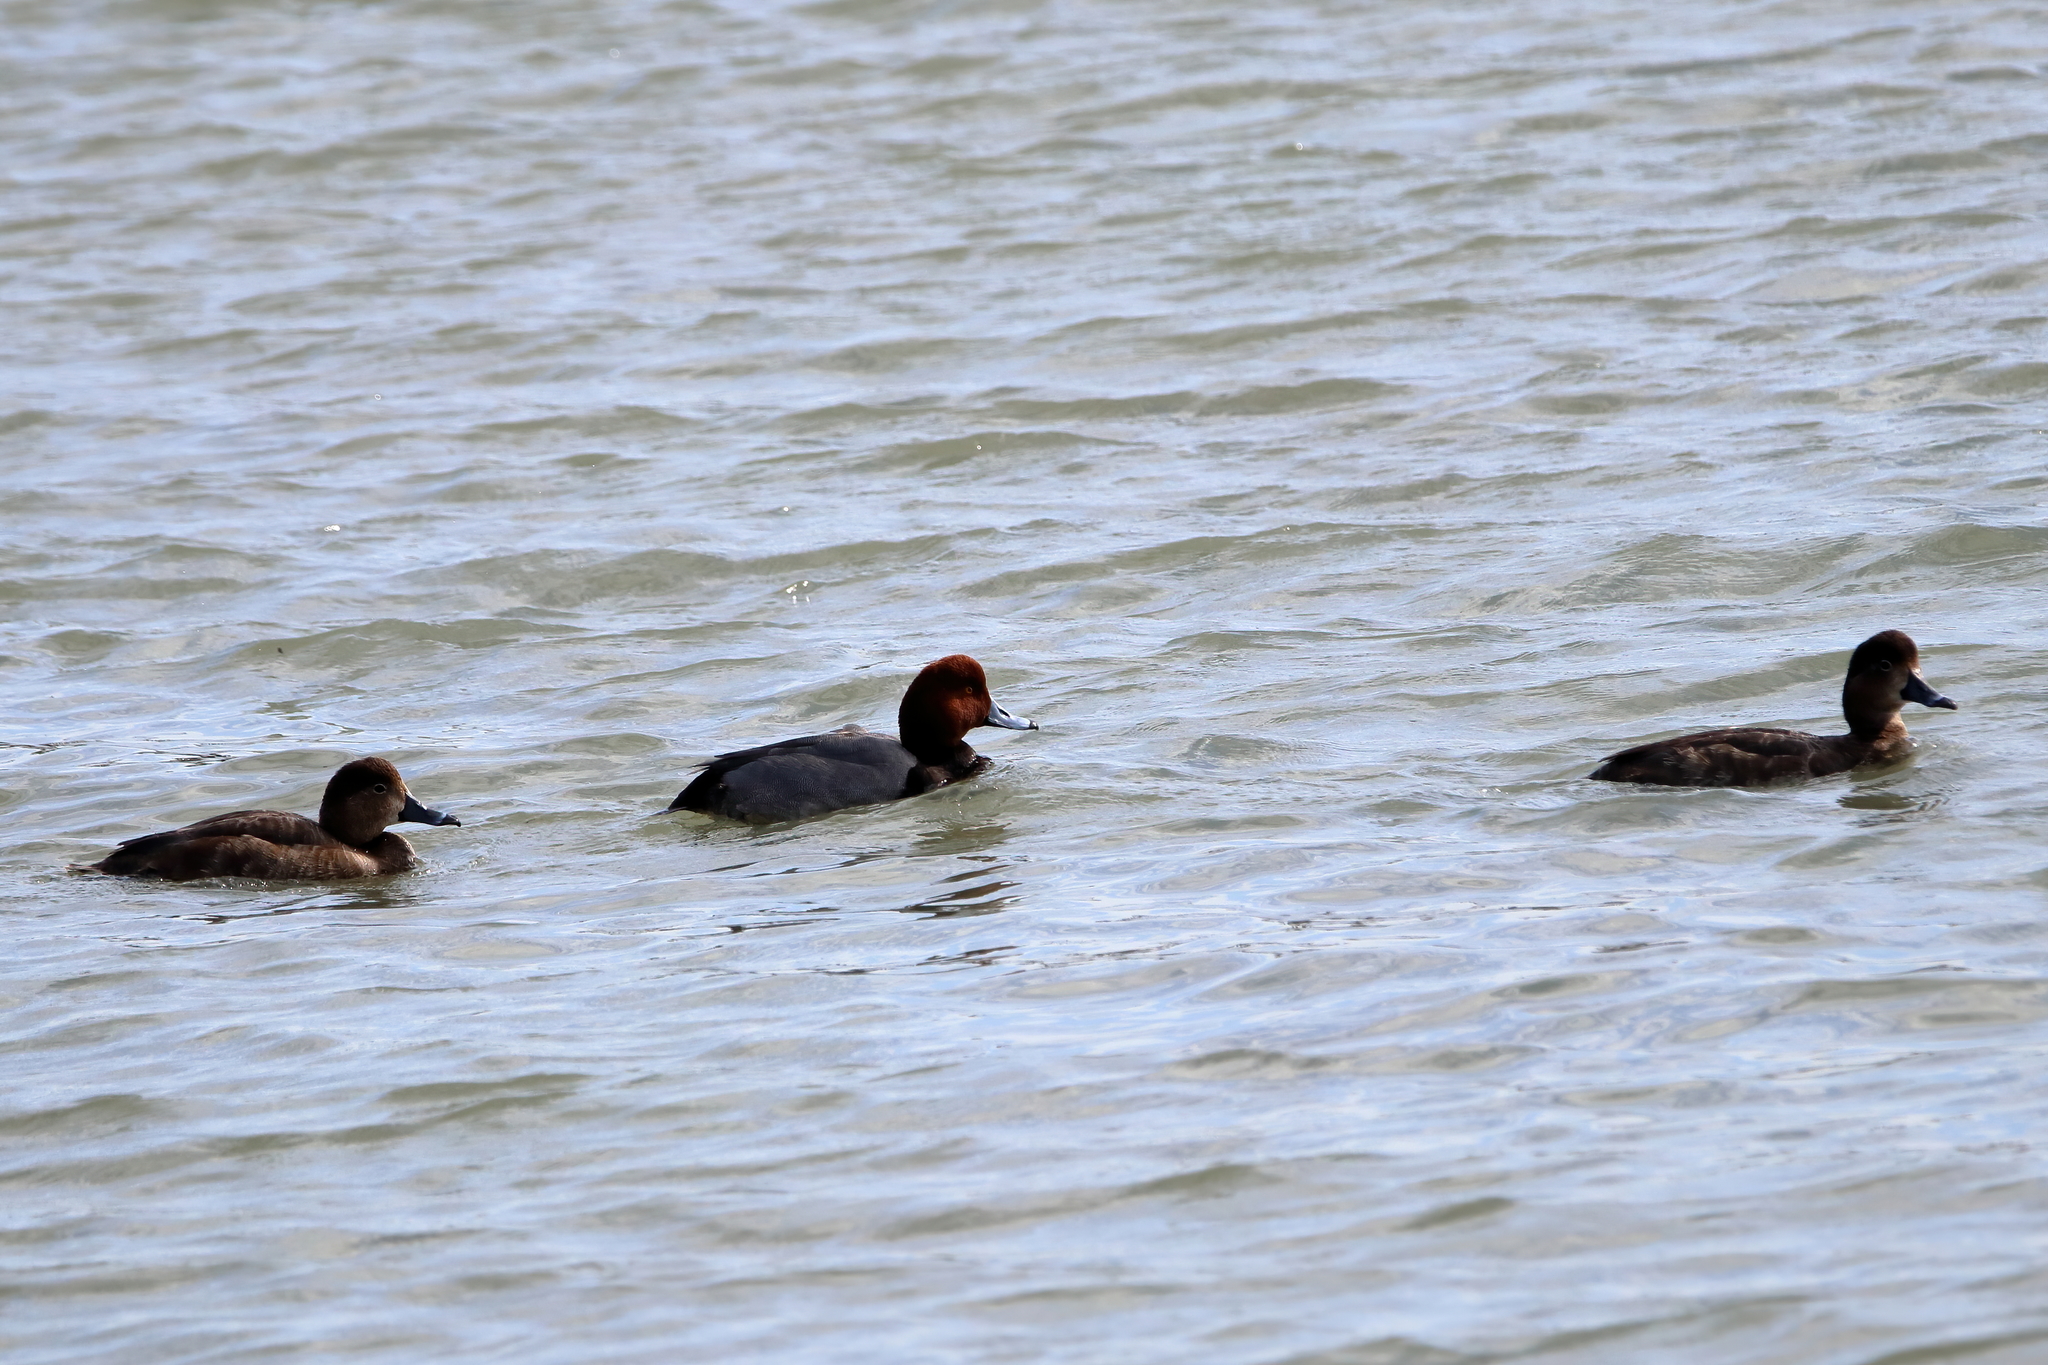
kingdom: Animalia
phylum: Chordata
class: Aves
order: Anseriformes
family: Anatidae
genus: Aythya
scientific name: Aythya americana
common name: Redhead
